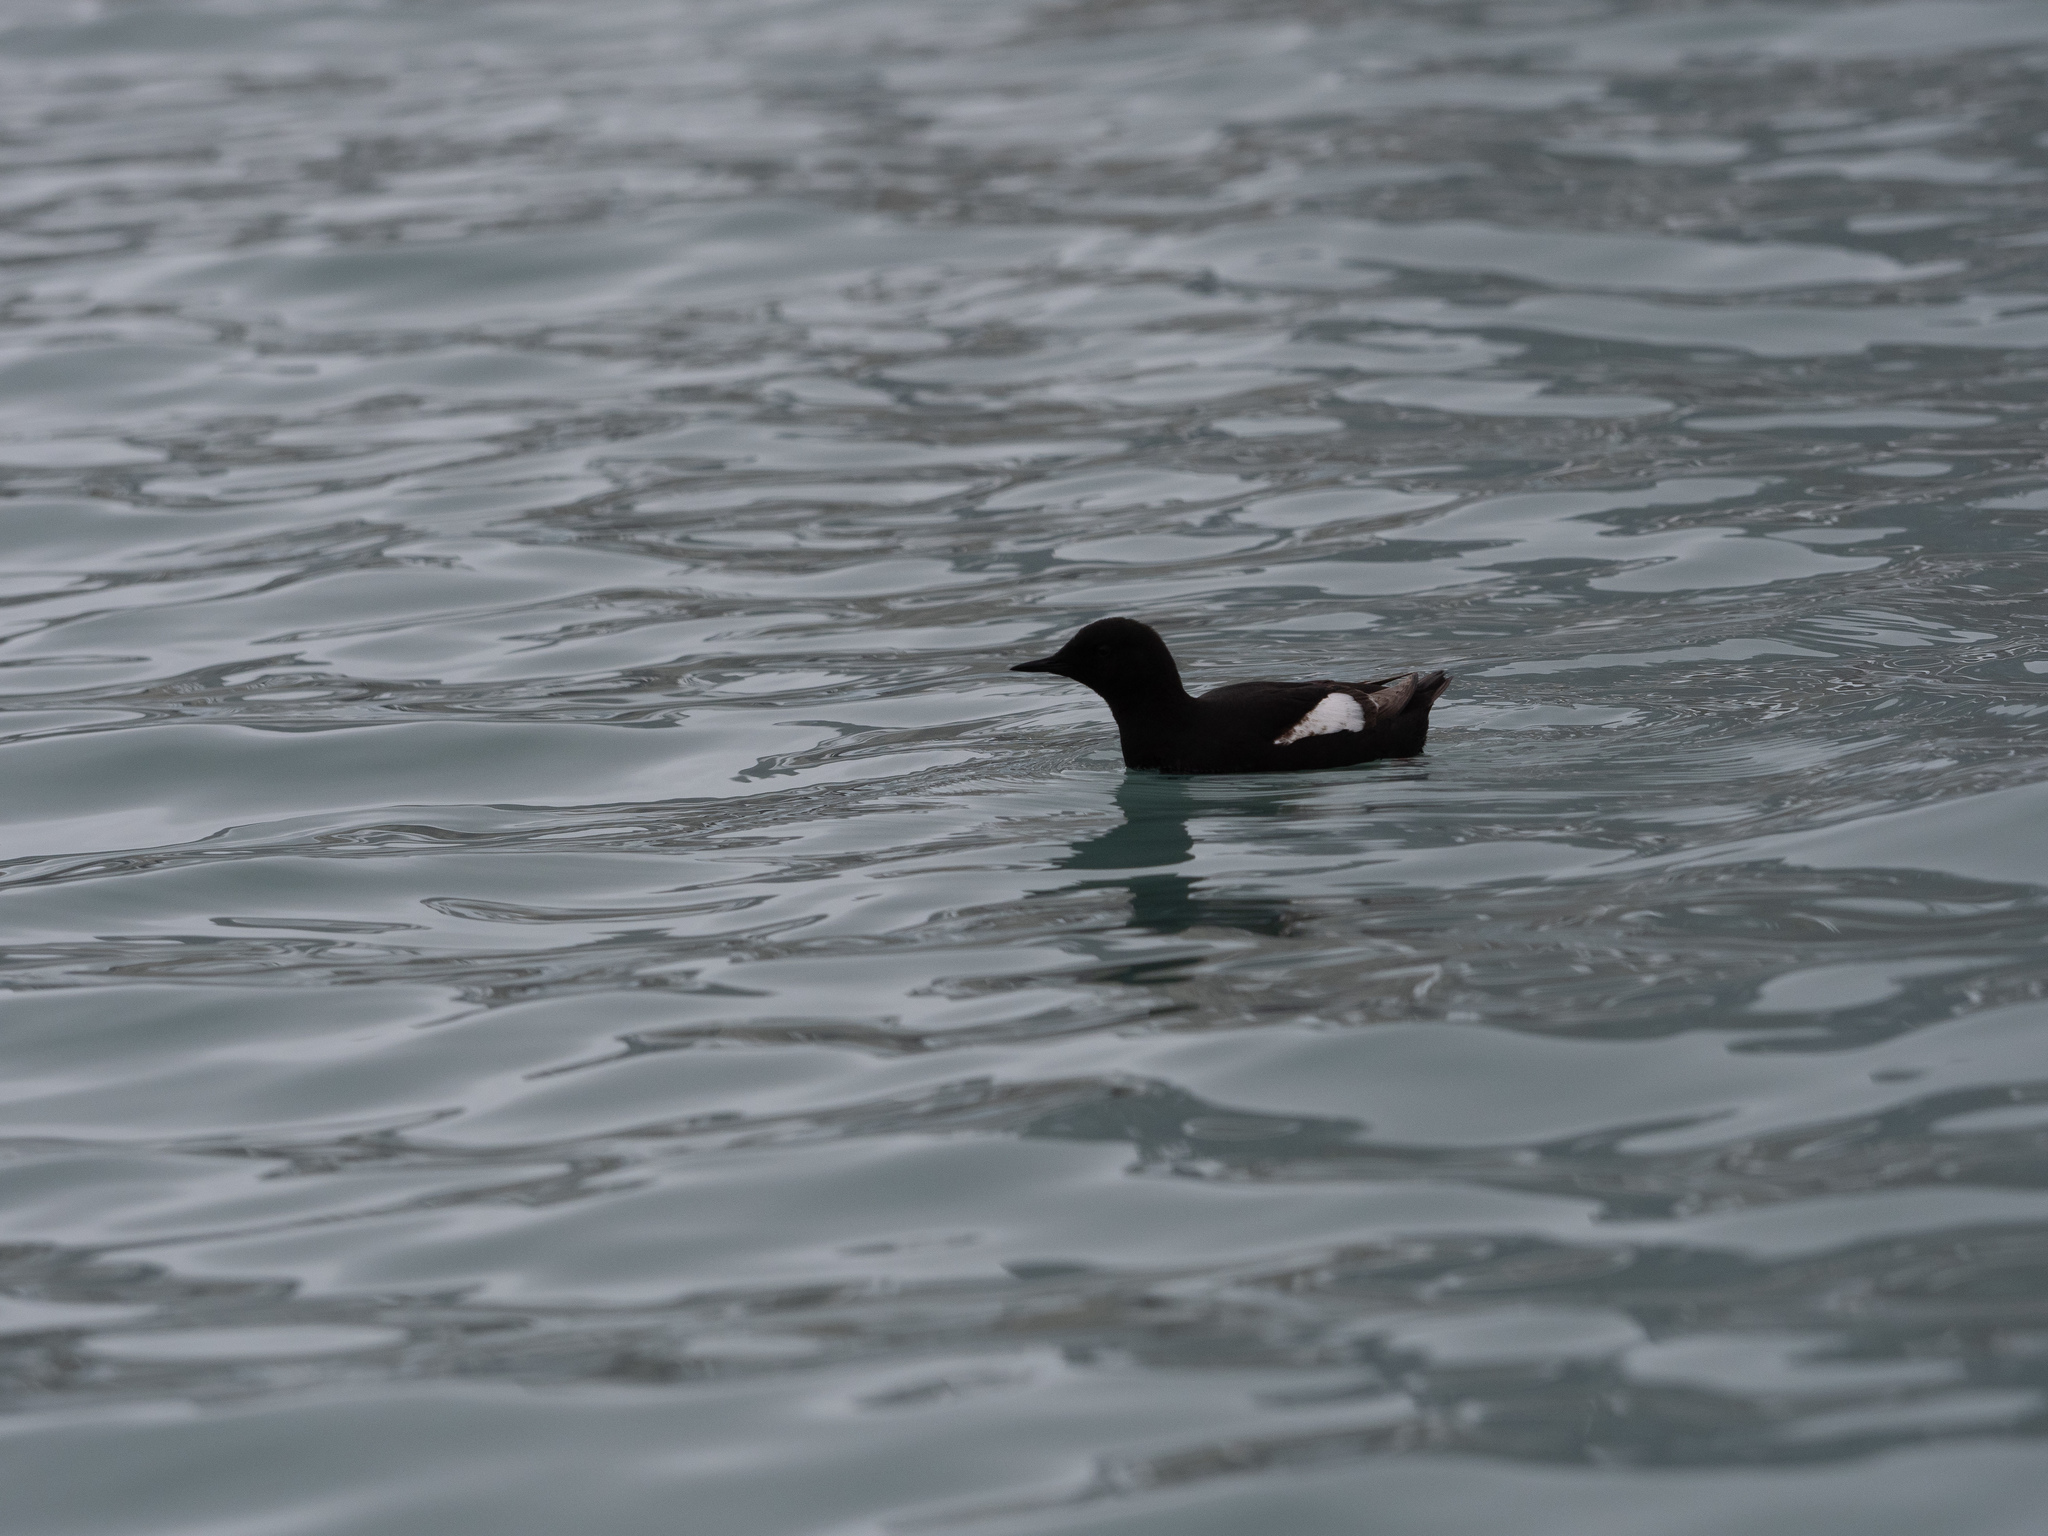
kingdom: Animalia
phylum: Chordata
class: Aves
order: Charadriiformes
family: Alcidae
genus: Cepphus
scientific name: Cepphus grylle
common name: Black guillemot
